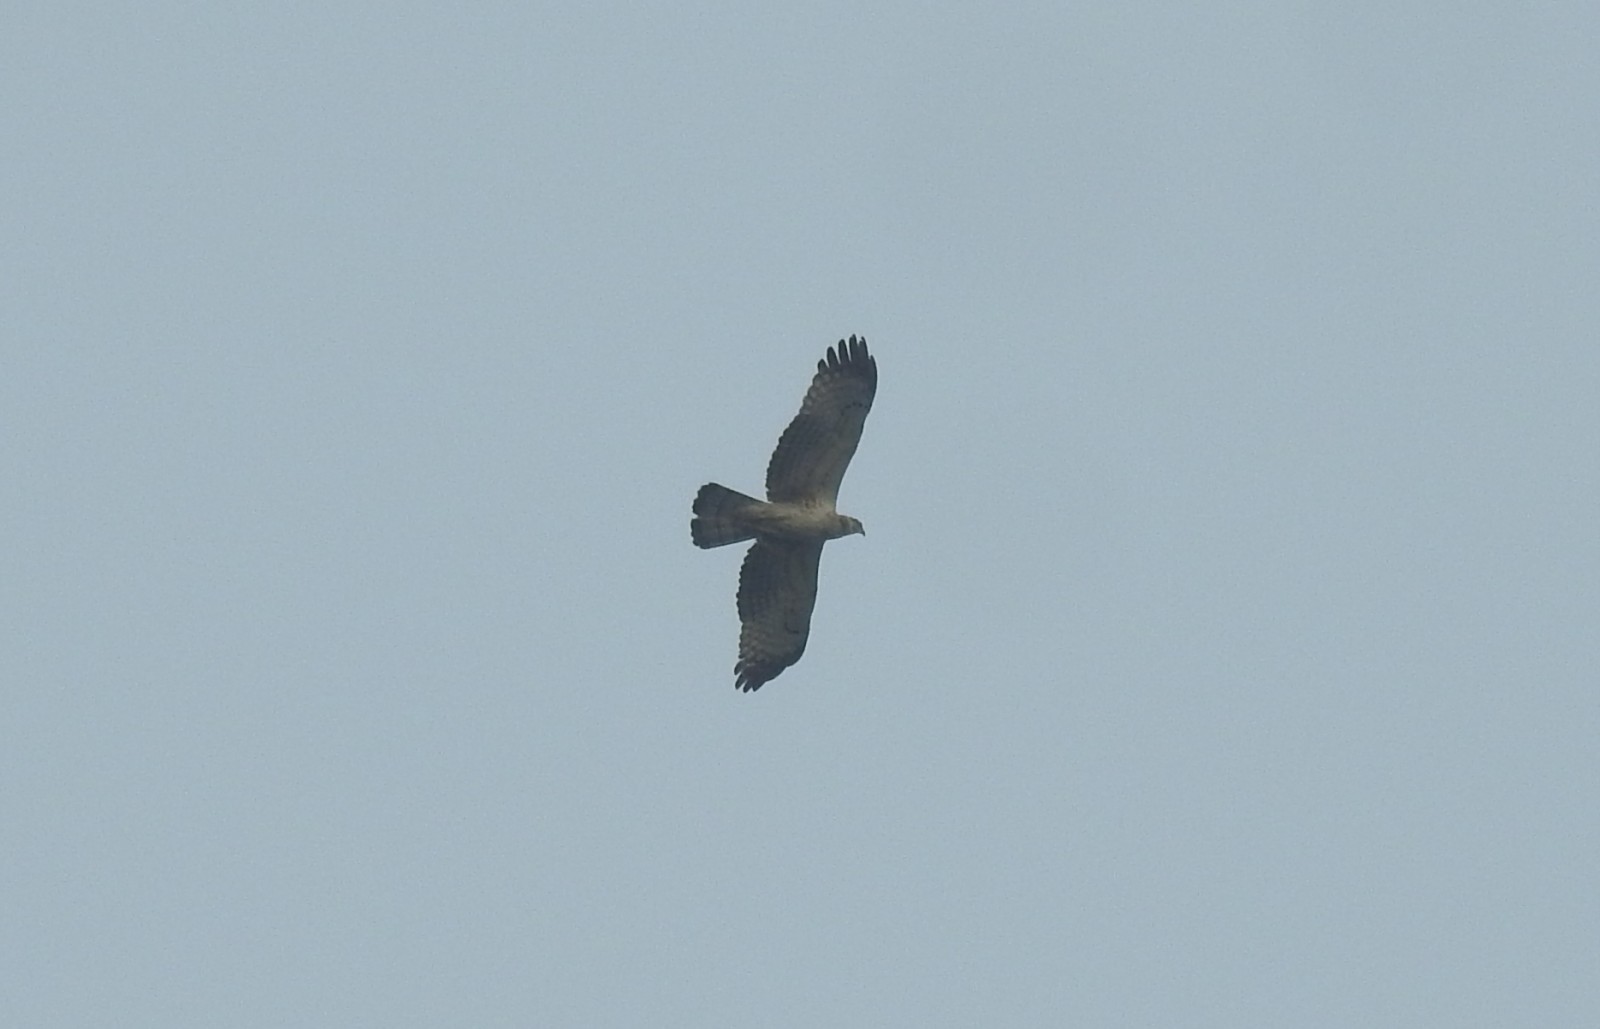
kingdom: Animalia
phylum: Chordata
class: Aves
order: Accipitriformes
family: Accipitridae
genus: Pernis
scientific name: Pernis ptilorhynchus
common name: Crested honey buzzard
